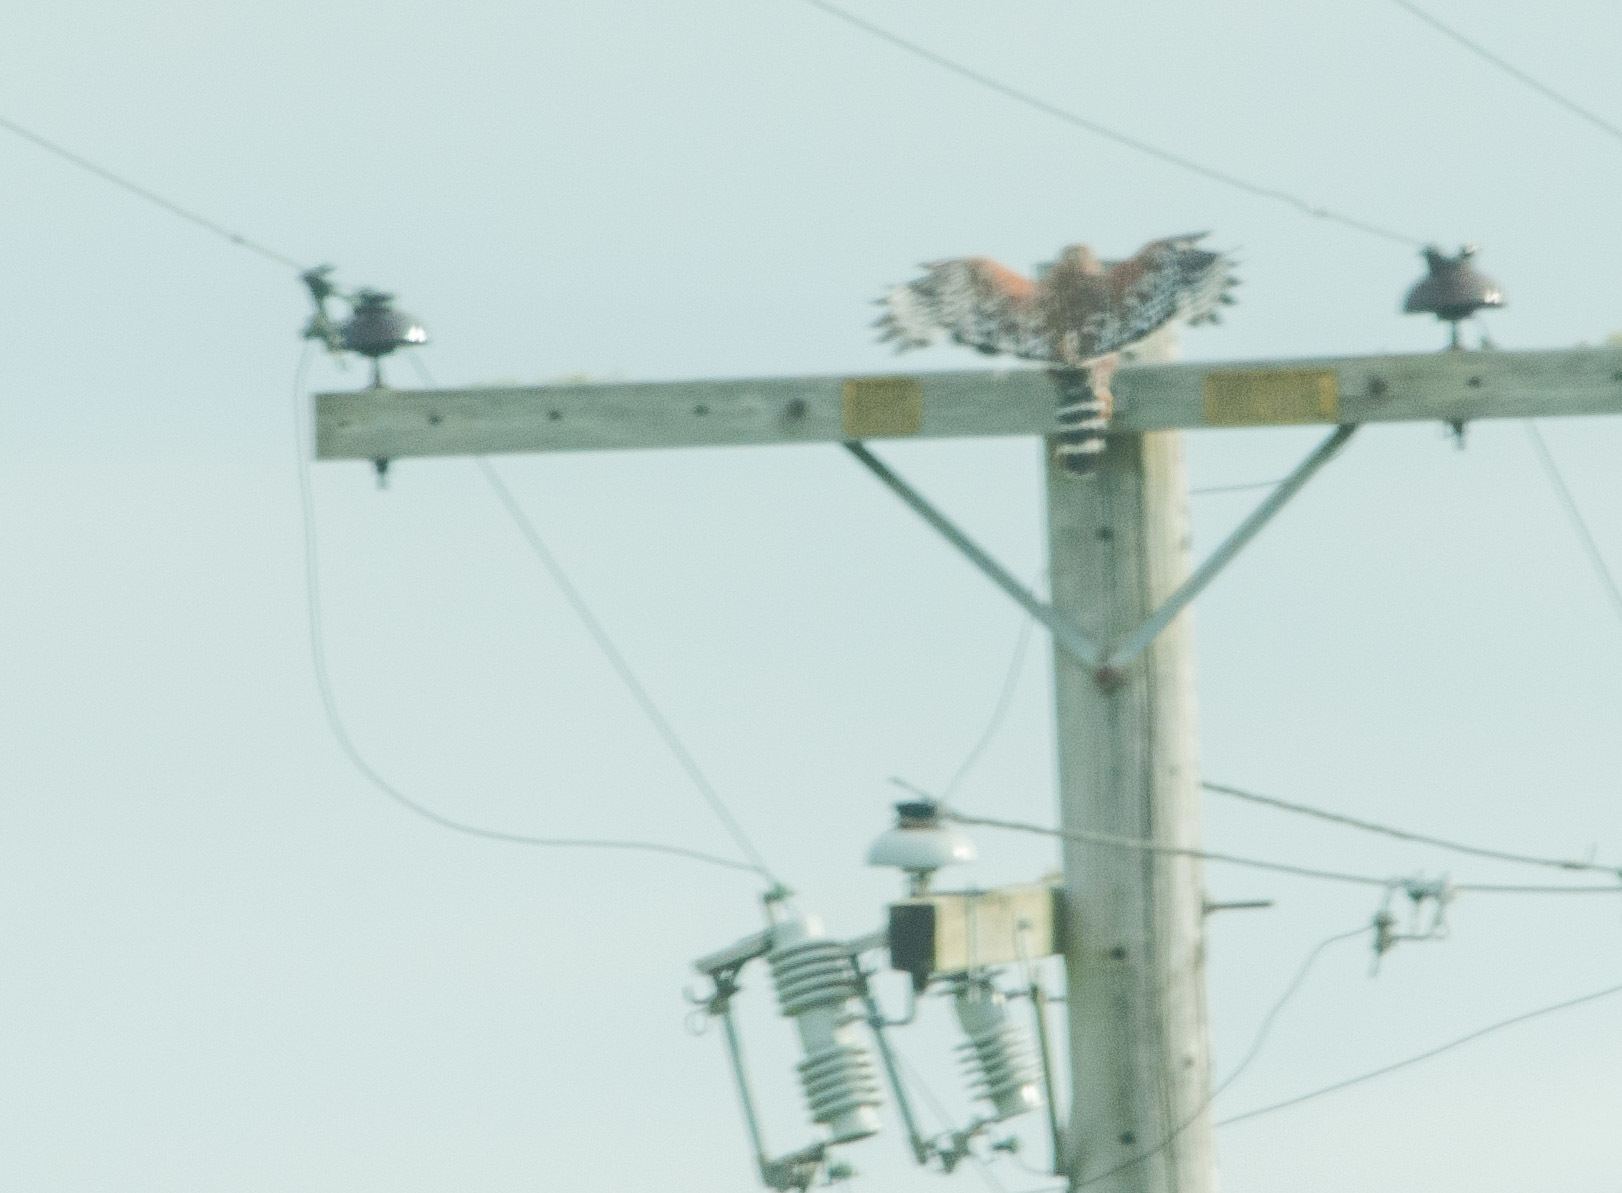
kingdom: Animalia
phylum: Chordata
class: Aves
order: Accipitriformes
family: Accipitridae
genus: Buteo
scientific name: Buteo lineatus
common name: Red-shouldered hawk
